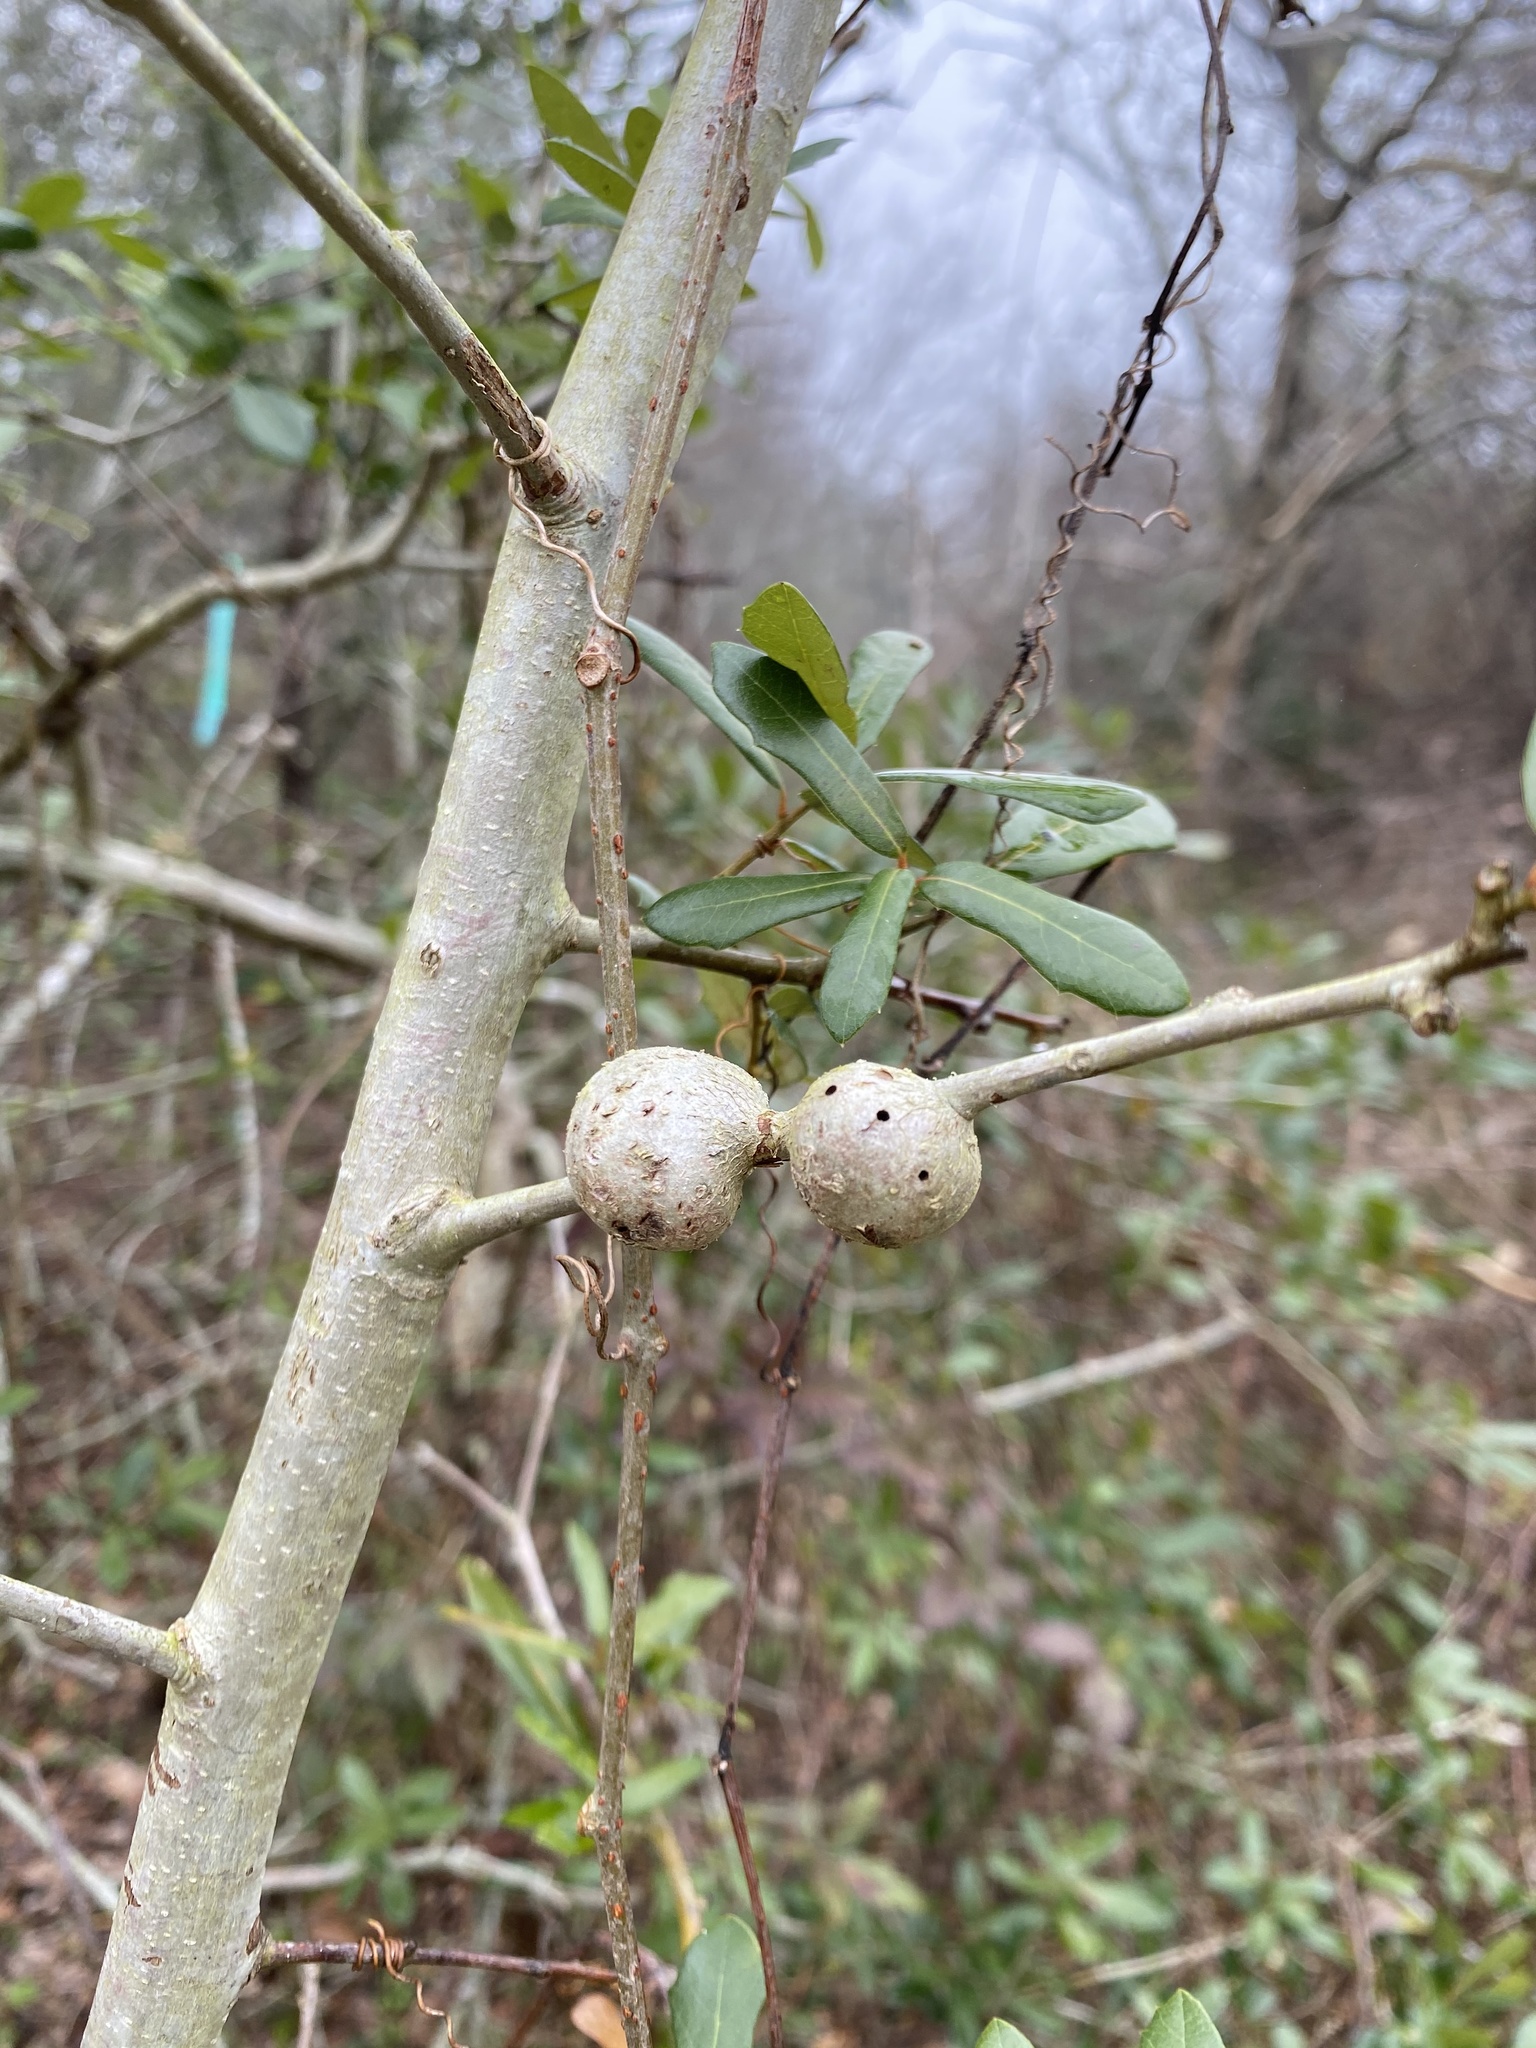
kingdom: Animalia
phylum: Arthropoda
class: Insecta
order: Hymenoptera
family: Cynipidae
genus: Callirhytis
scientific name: Callirhytis
